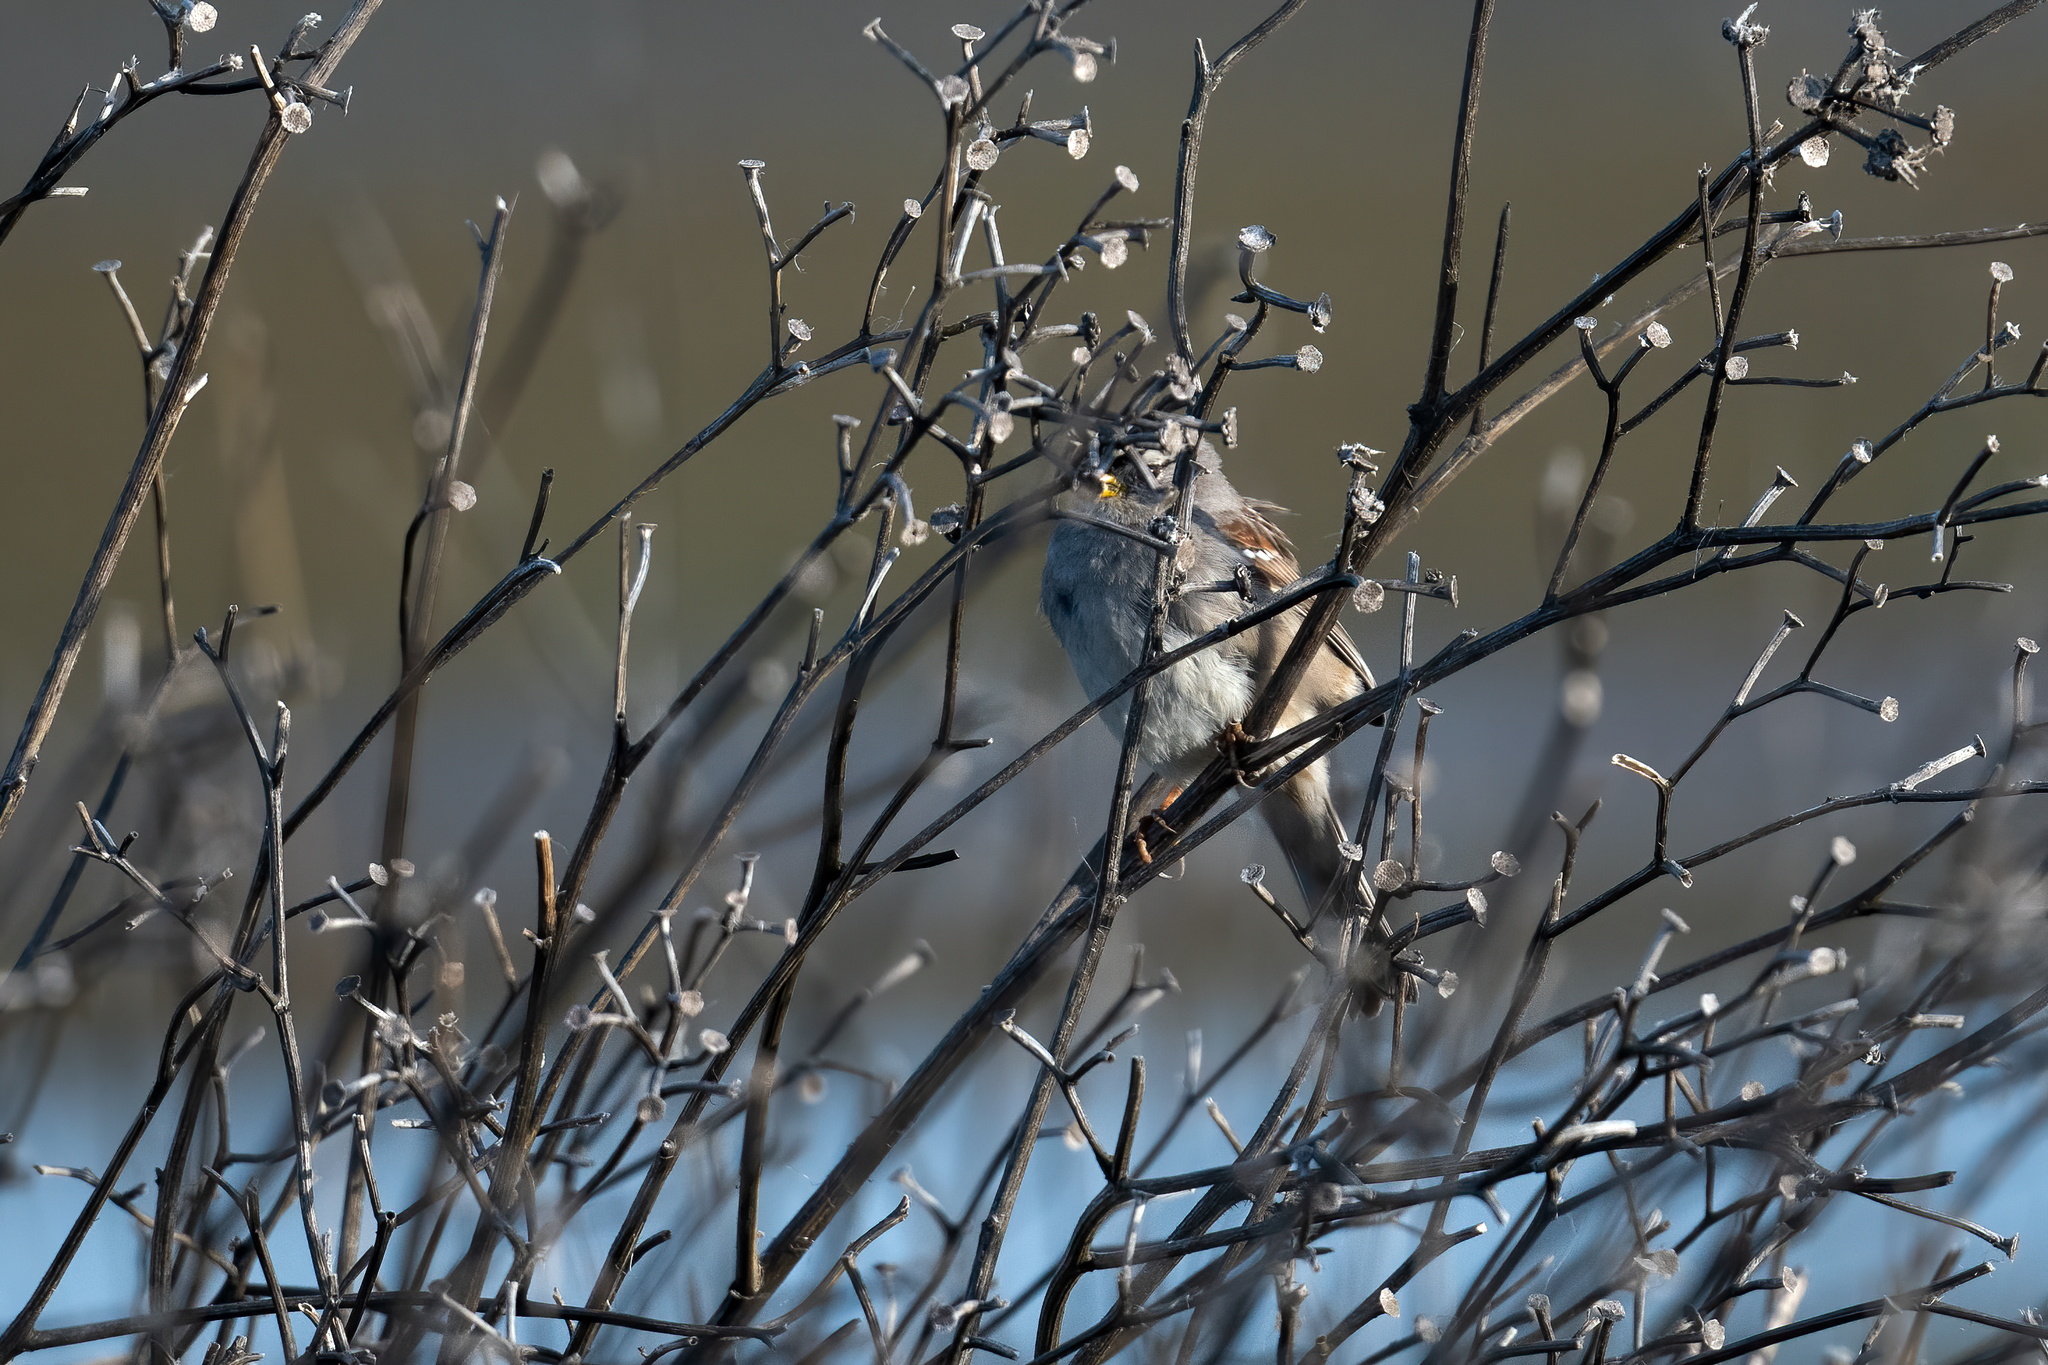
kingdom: Animalia
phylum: Chordata
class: Aves
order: Passeriformes
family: Passerellidae
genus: Zonotrichia
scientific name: Zonotrichia leucophrys
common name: White-crowned sparrow
